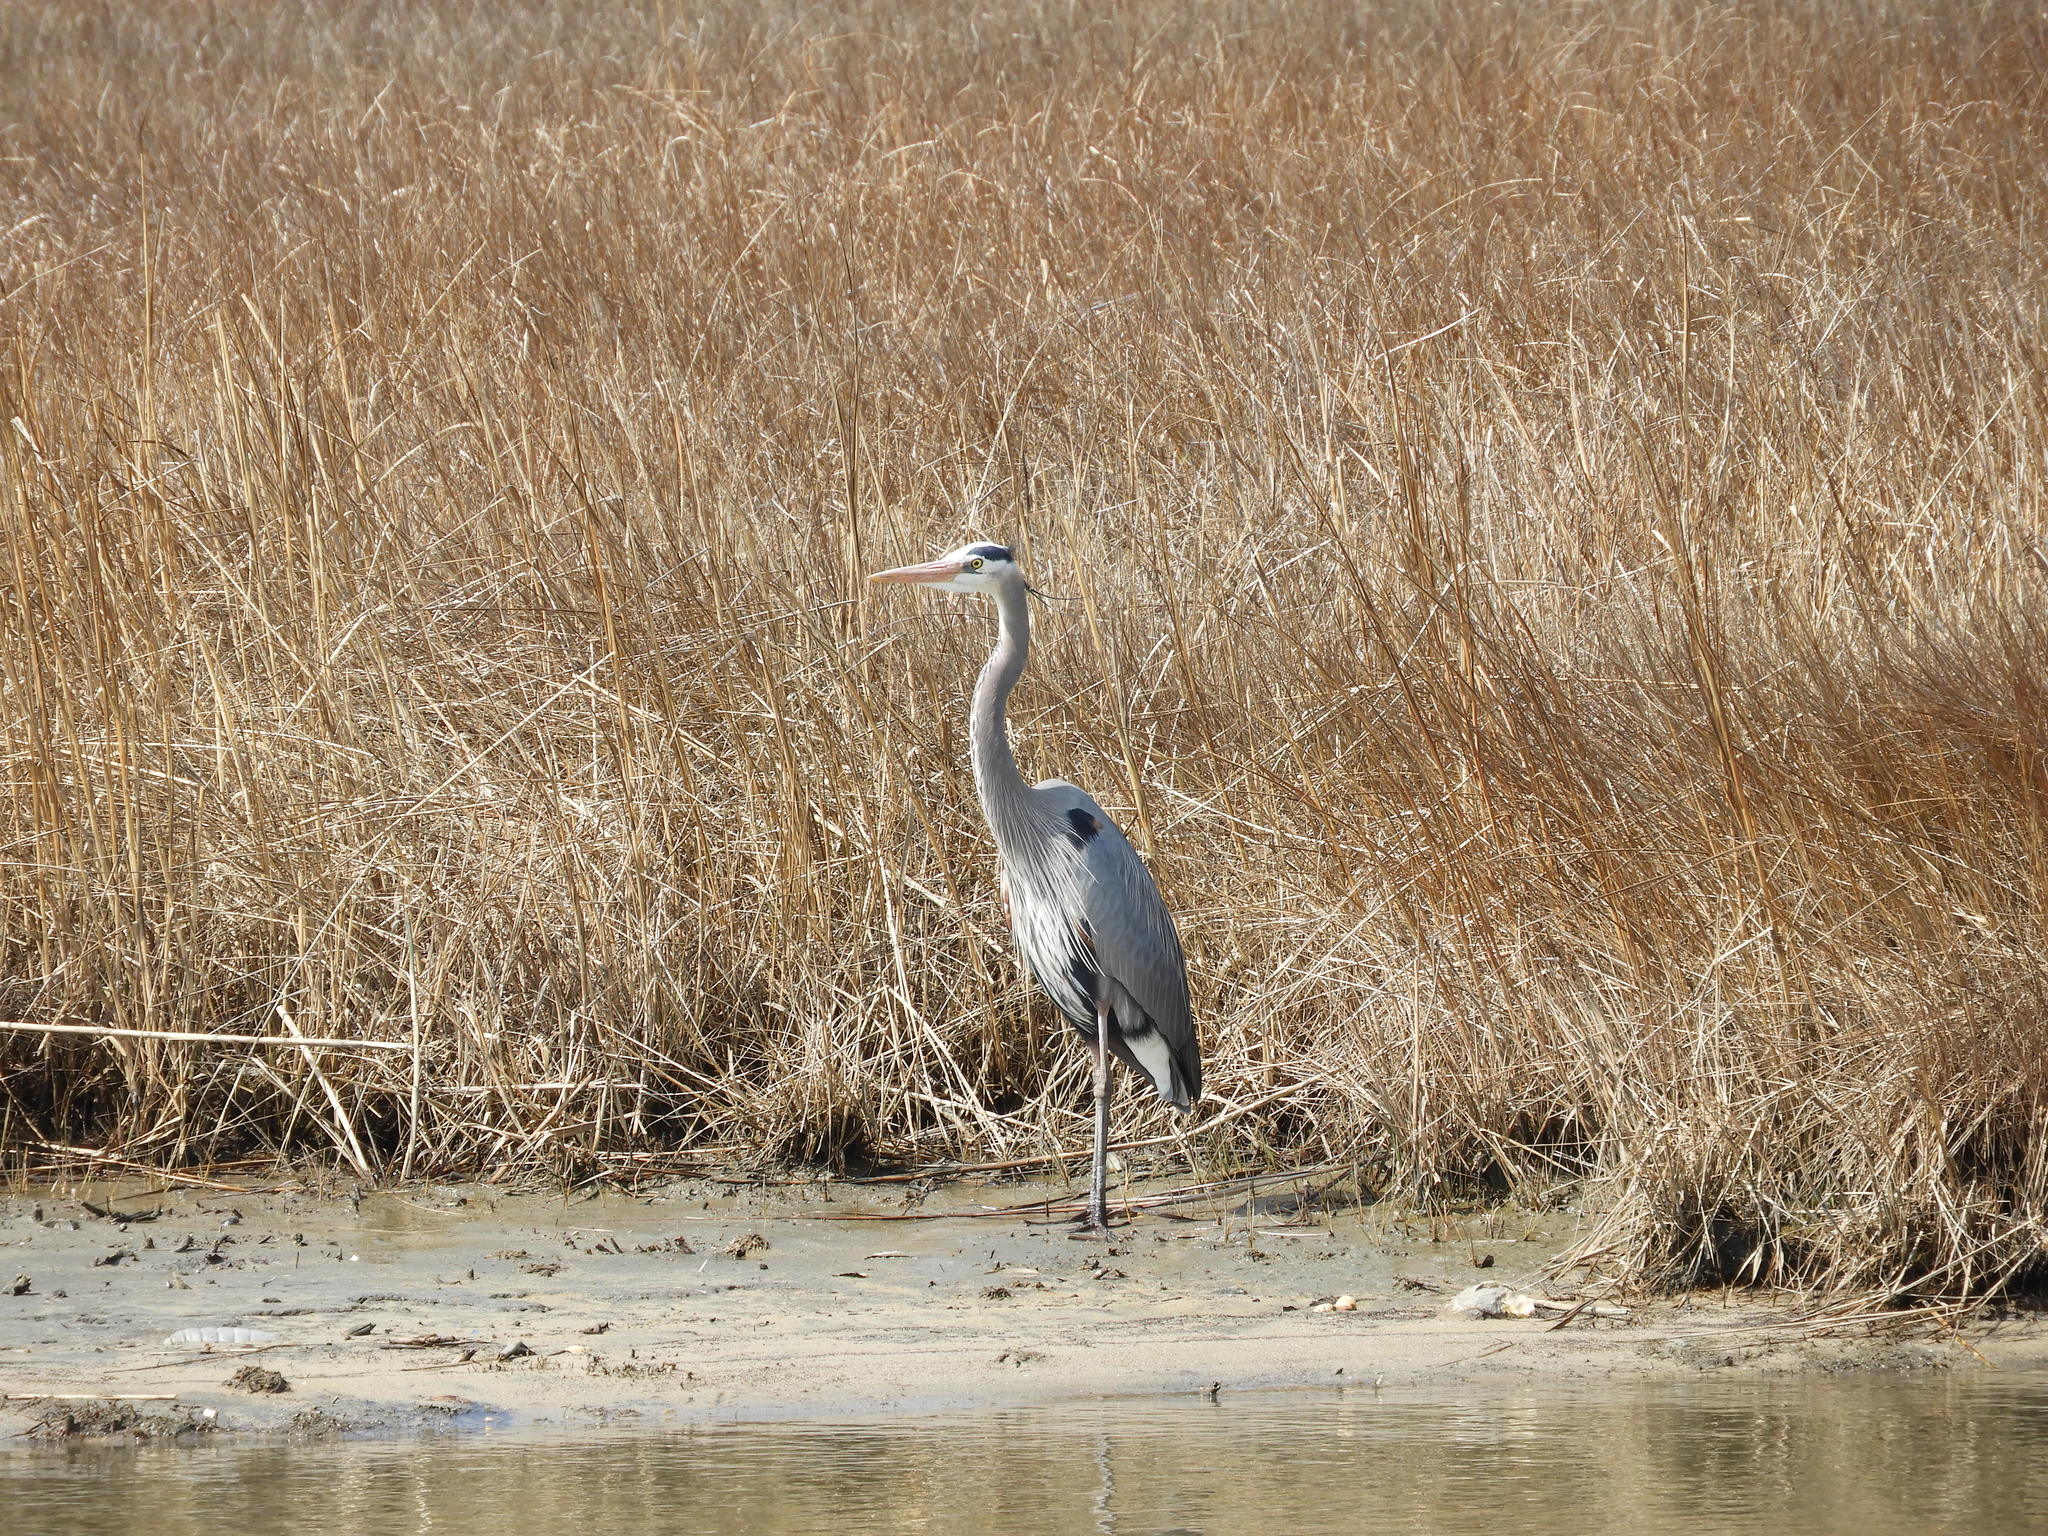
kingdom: Animalia
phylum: Chordata
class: Aves
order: Pelecaniformes
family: Ardeidae
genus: Ardea
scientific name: Ardea herodias
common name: Great blue heron
